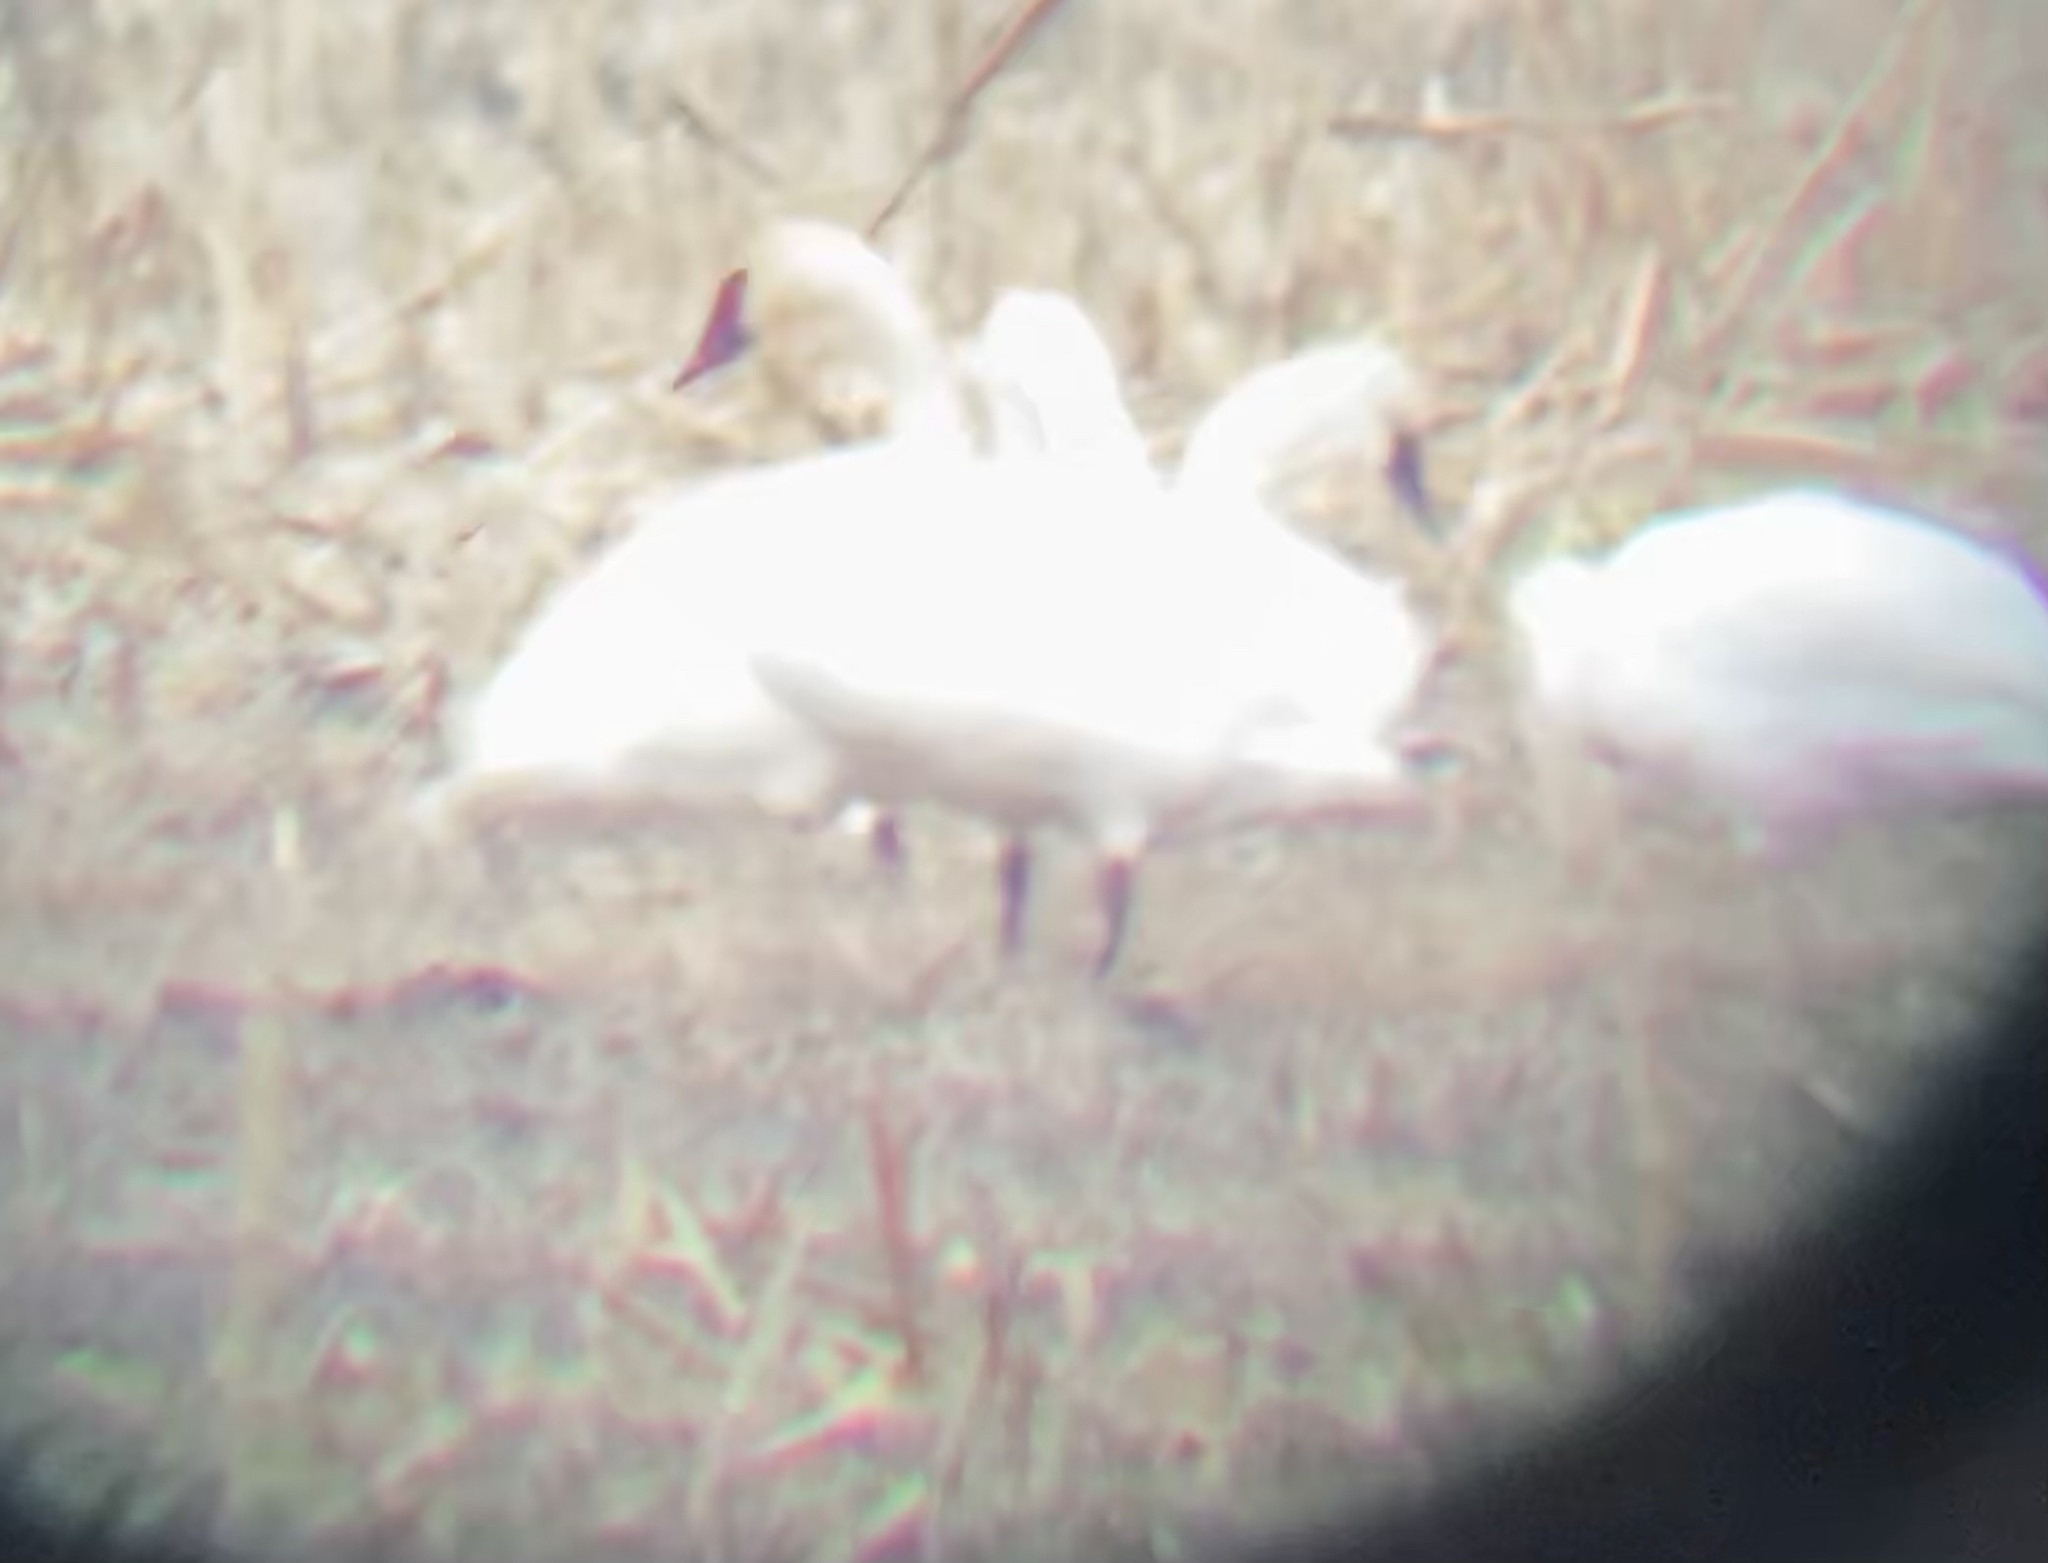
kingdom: Animalia
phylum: Chordata
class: Aves
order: Anseriformes
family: Anatidae
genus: Cygnus
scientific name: Cygnus buccinator
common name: Trumpeter swan
